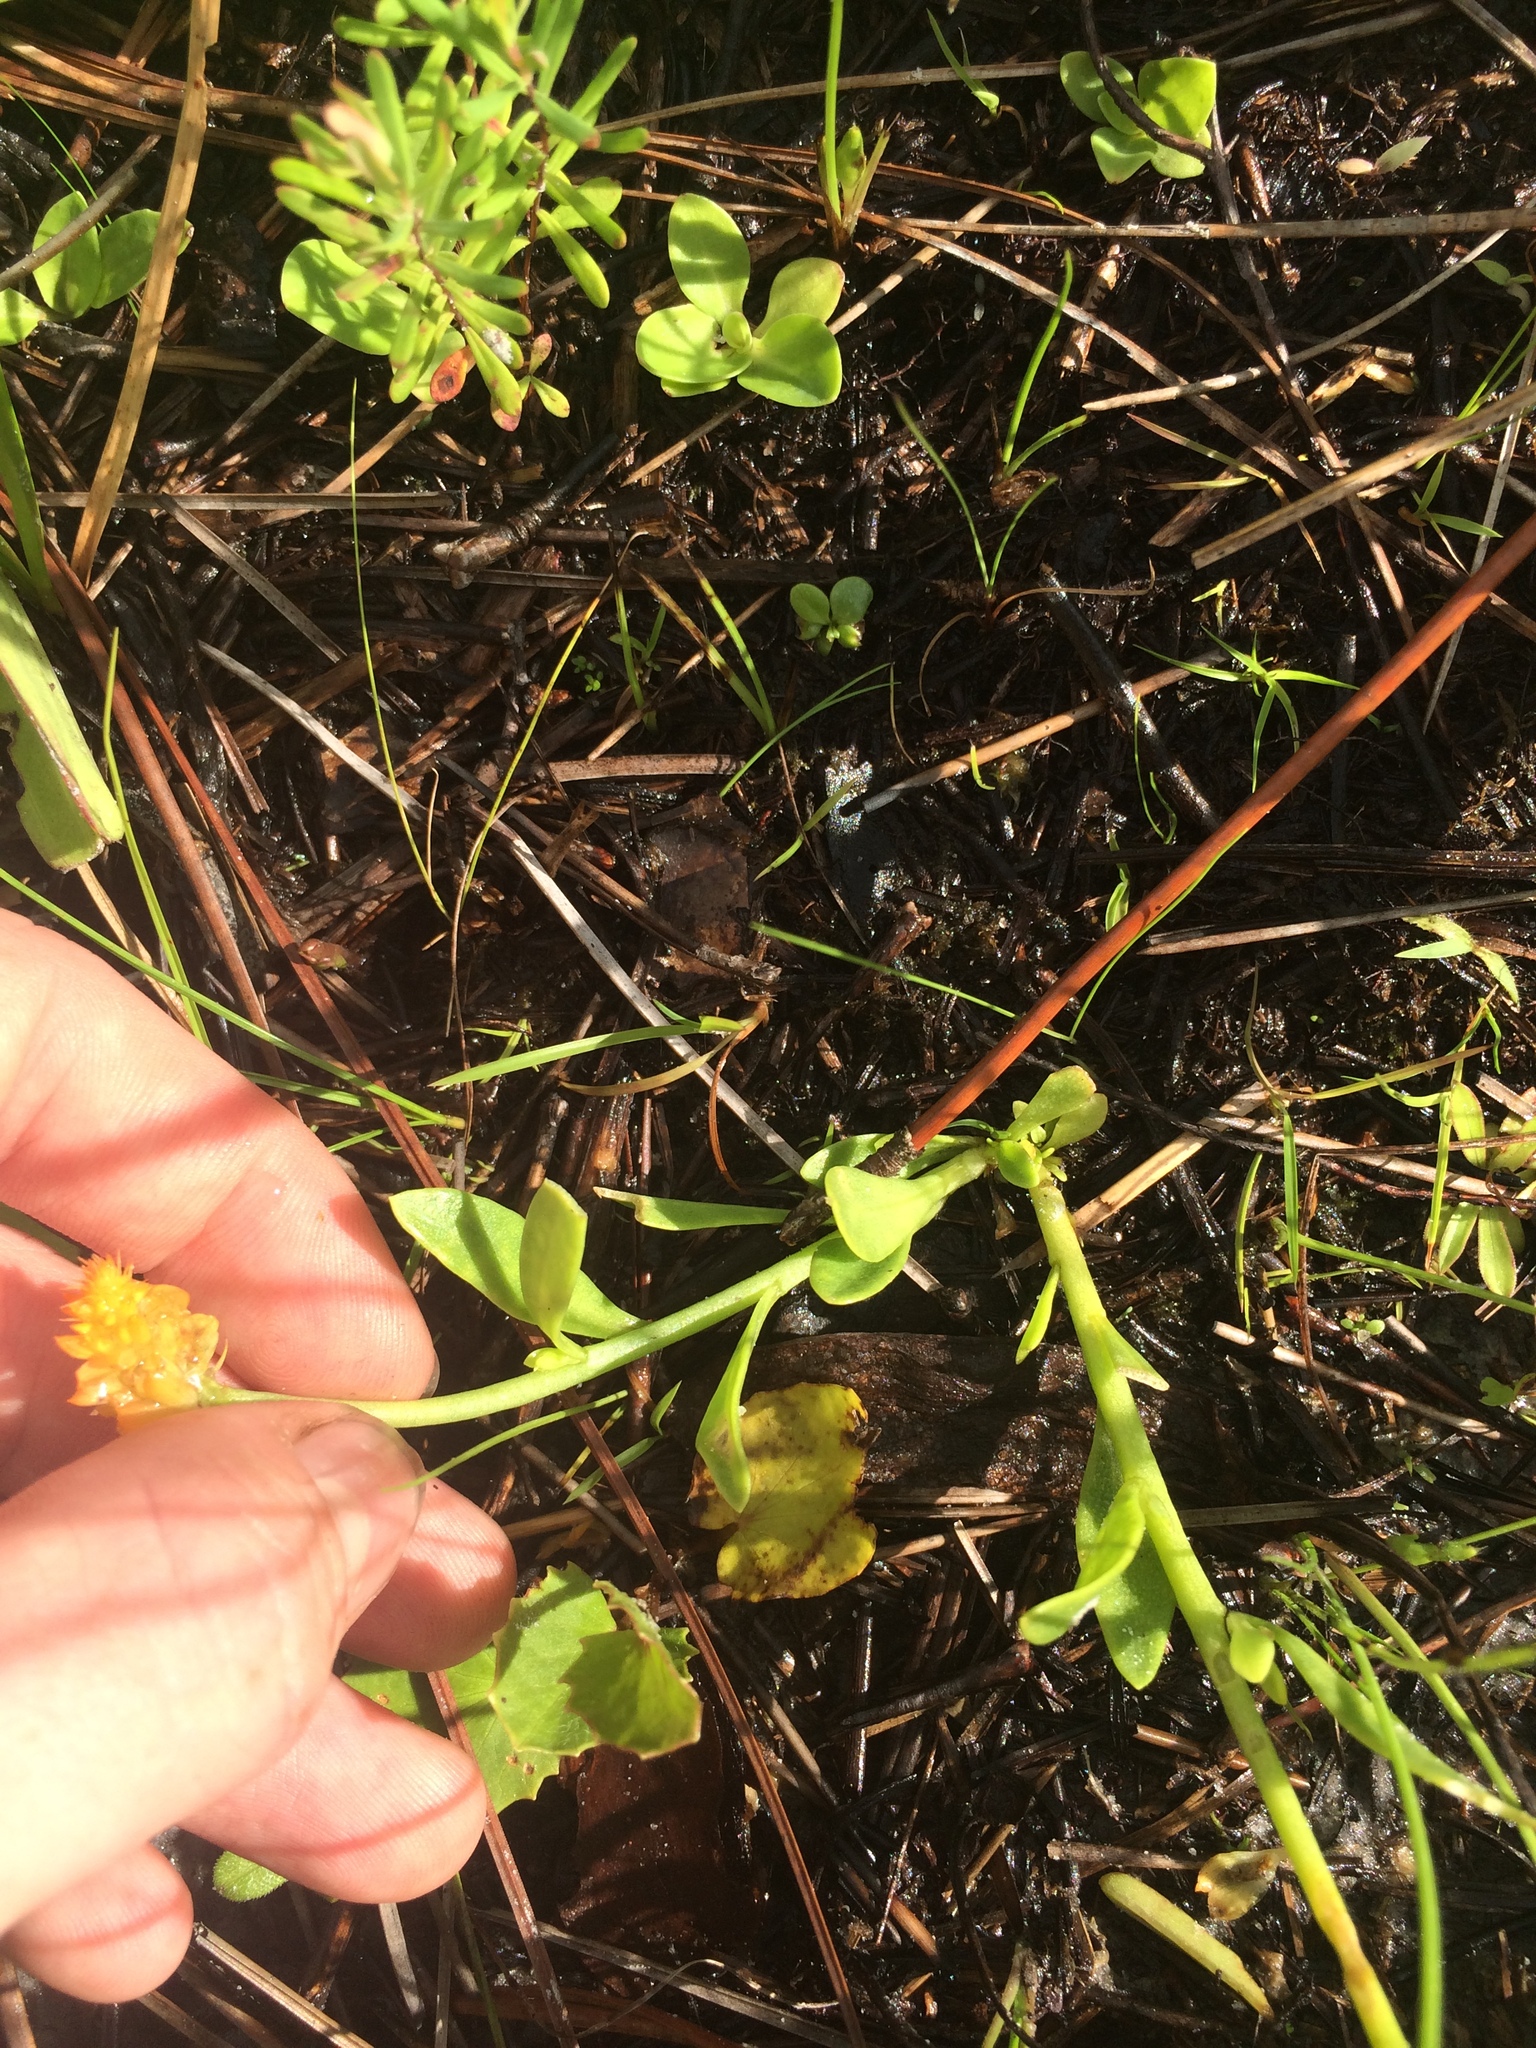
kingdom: Plantae
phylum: Tracheophyta
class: Magnoliopsida
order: Fabales
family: Polygalaceae
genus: Polygala
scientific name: Polygala lutea
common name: Orange milkwort
